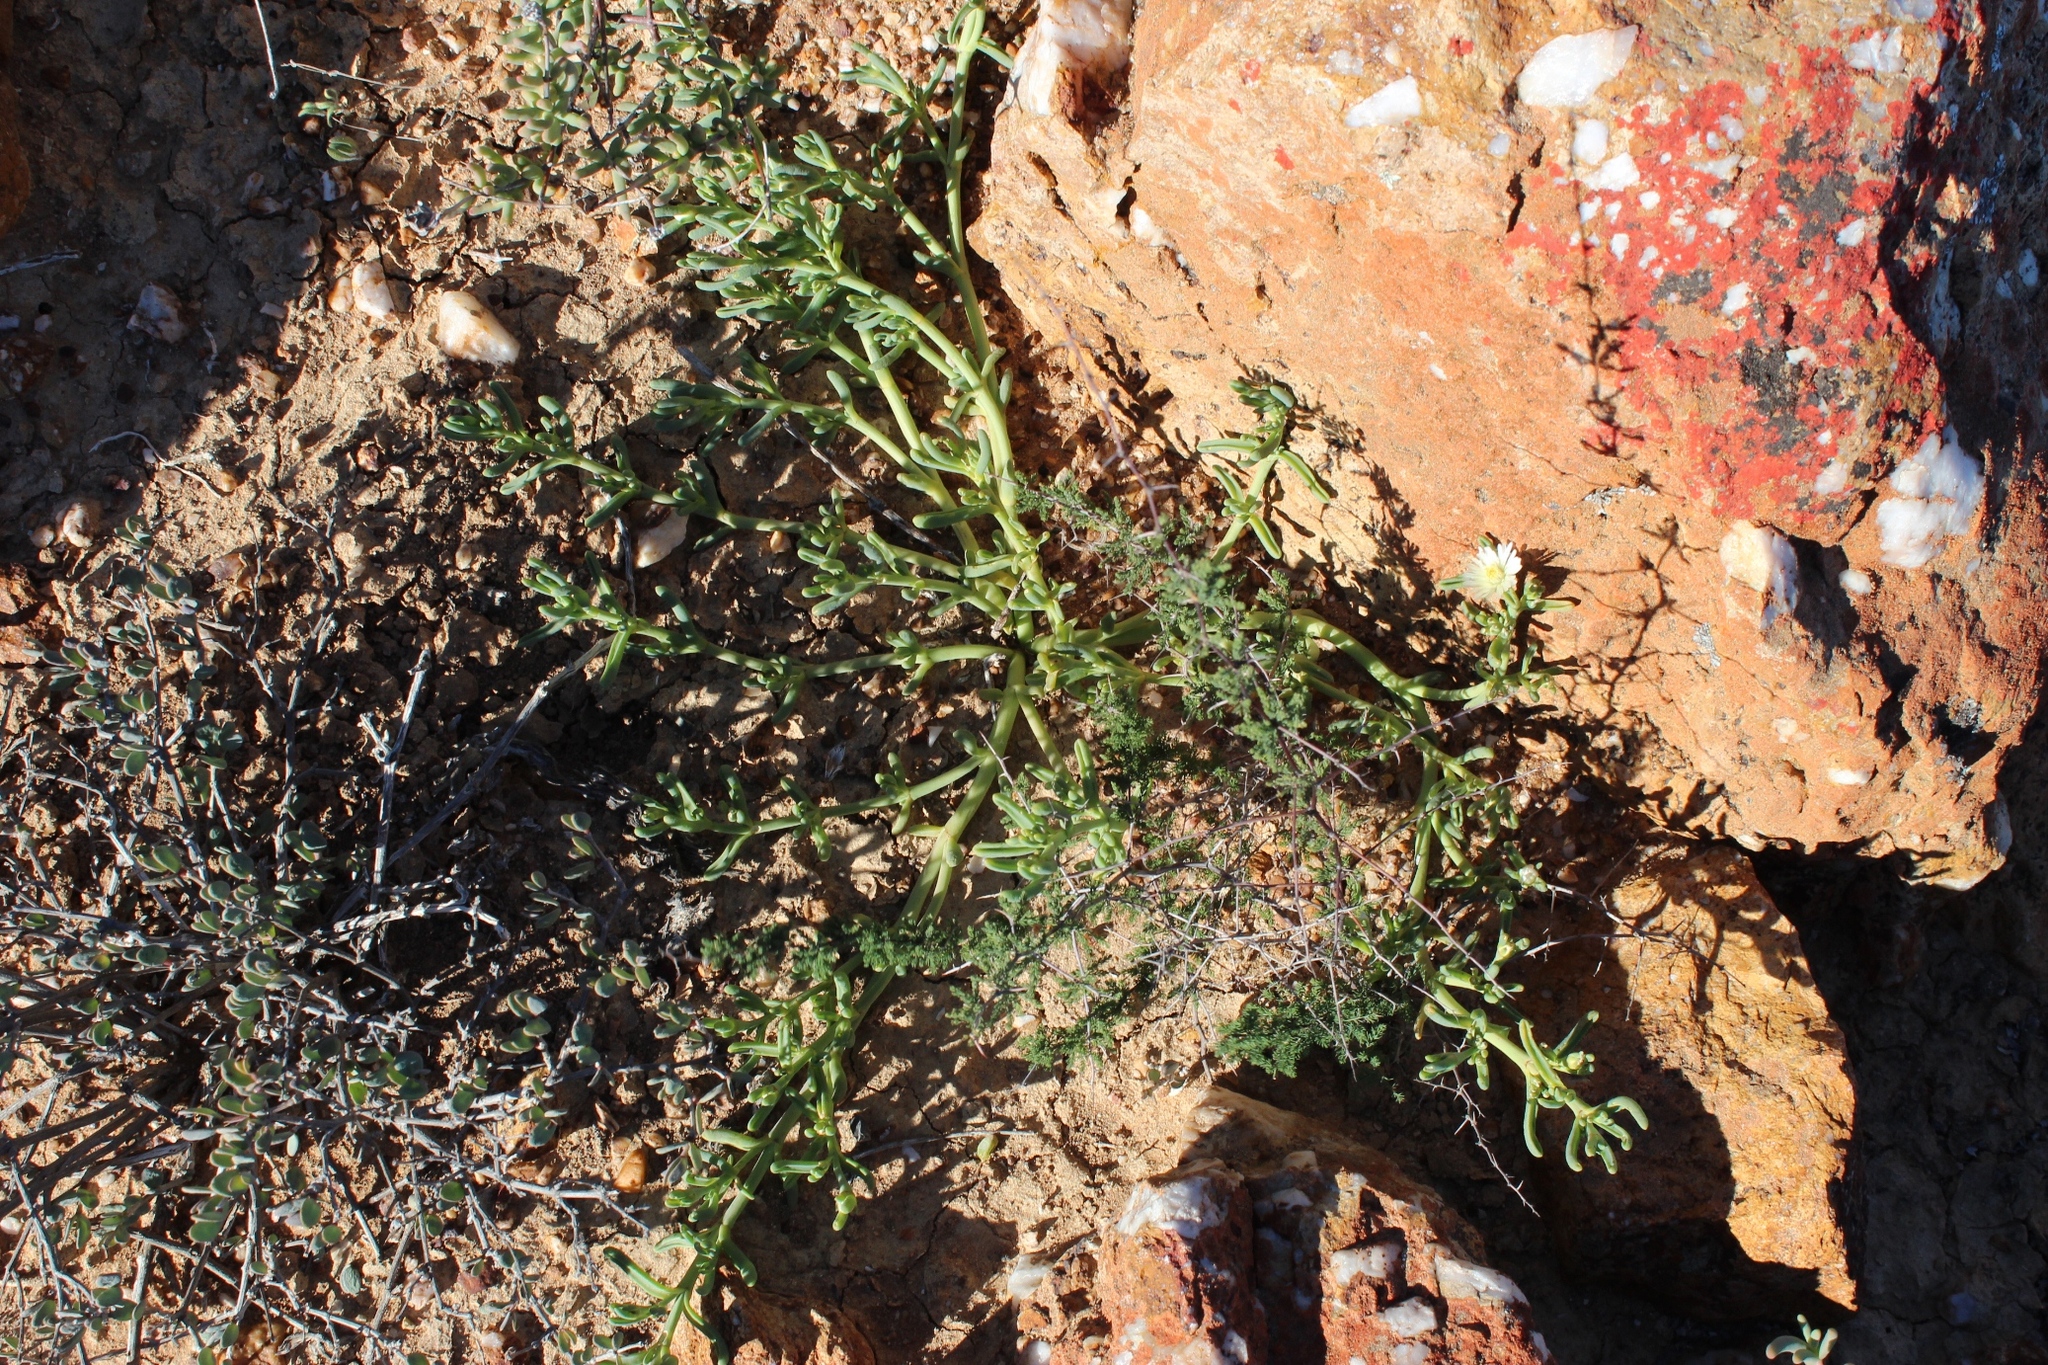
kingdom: Plantae
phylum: Tracheophyta
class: Magnoliopsida
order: Caryophyllales
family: Aizoaceae
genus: Mesembryanthemum
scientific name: Mesembryanthemum rapaceum
